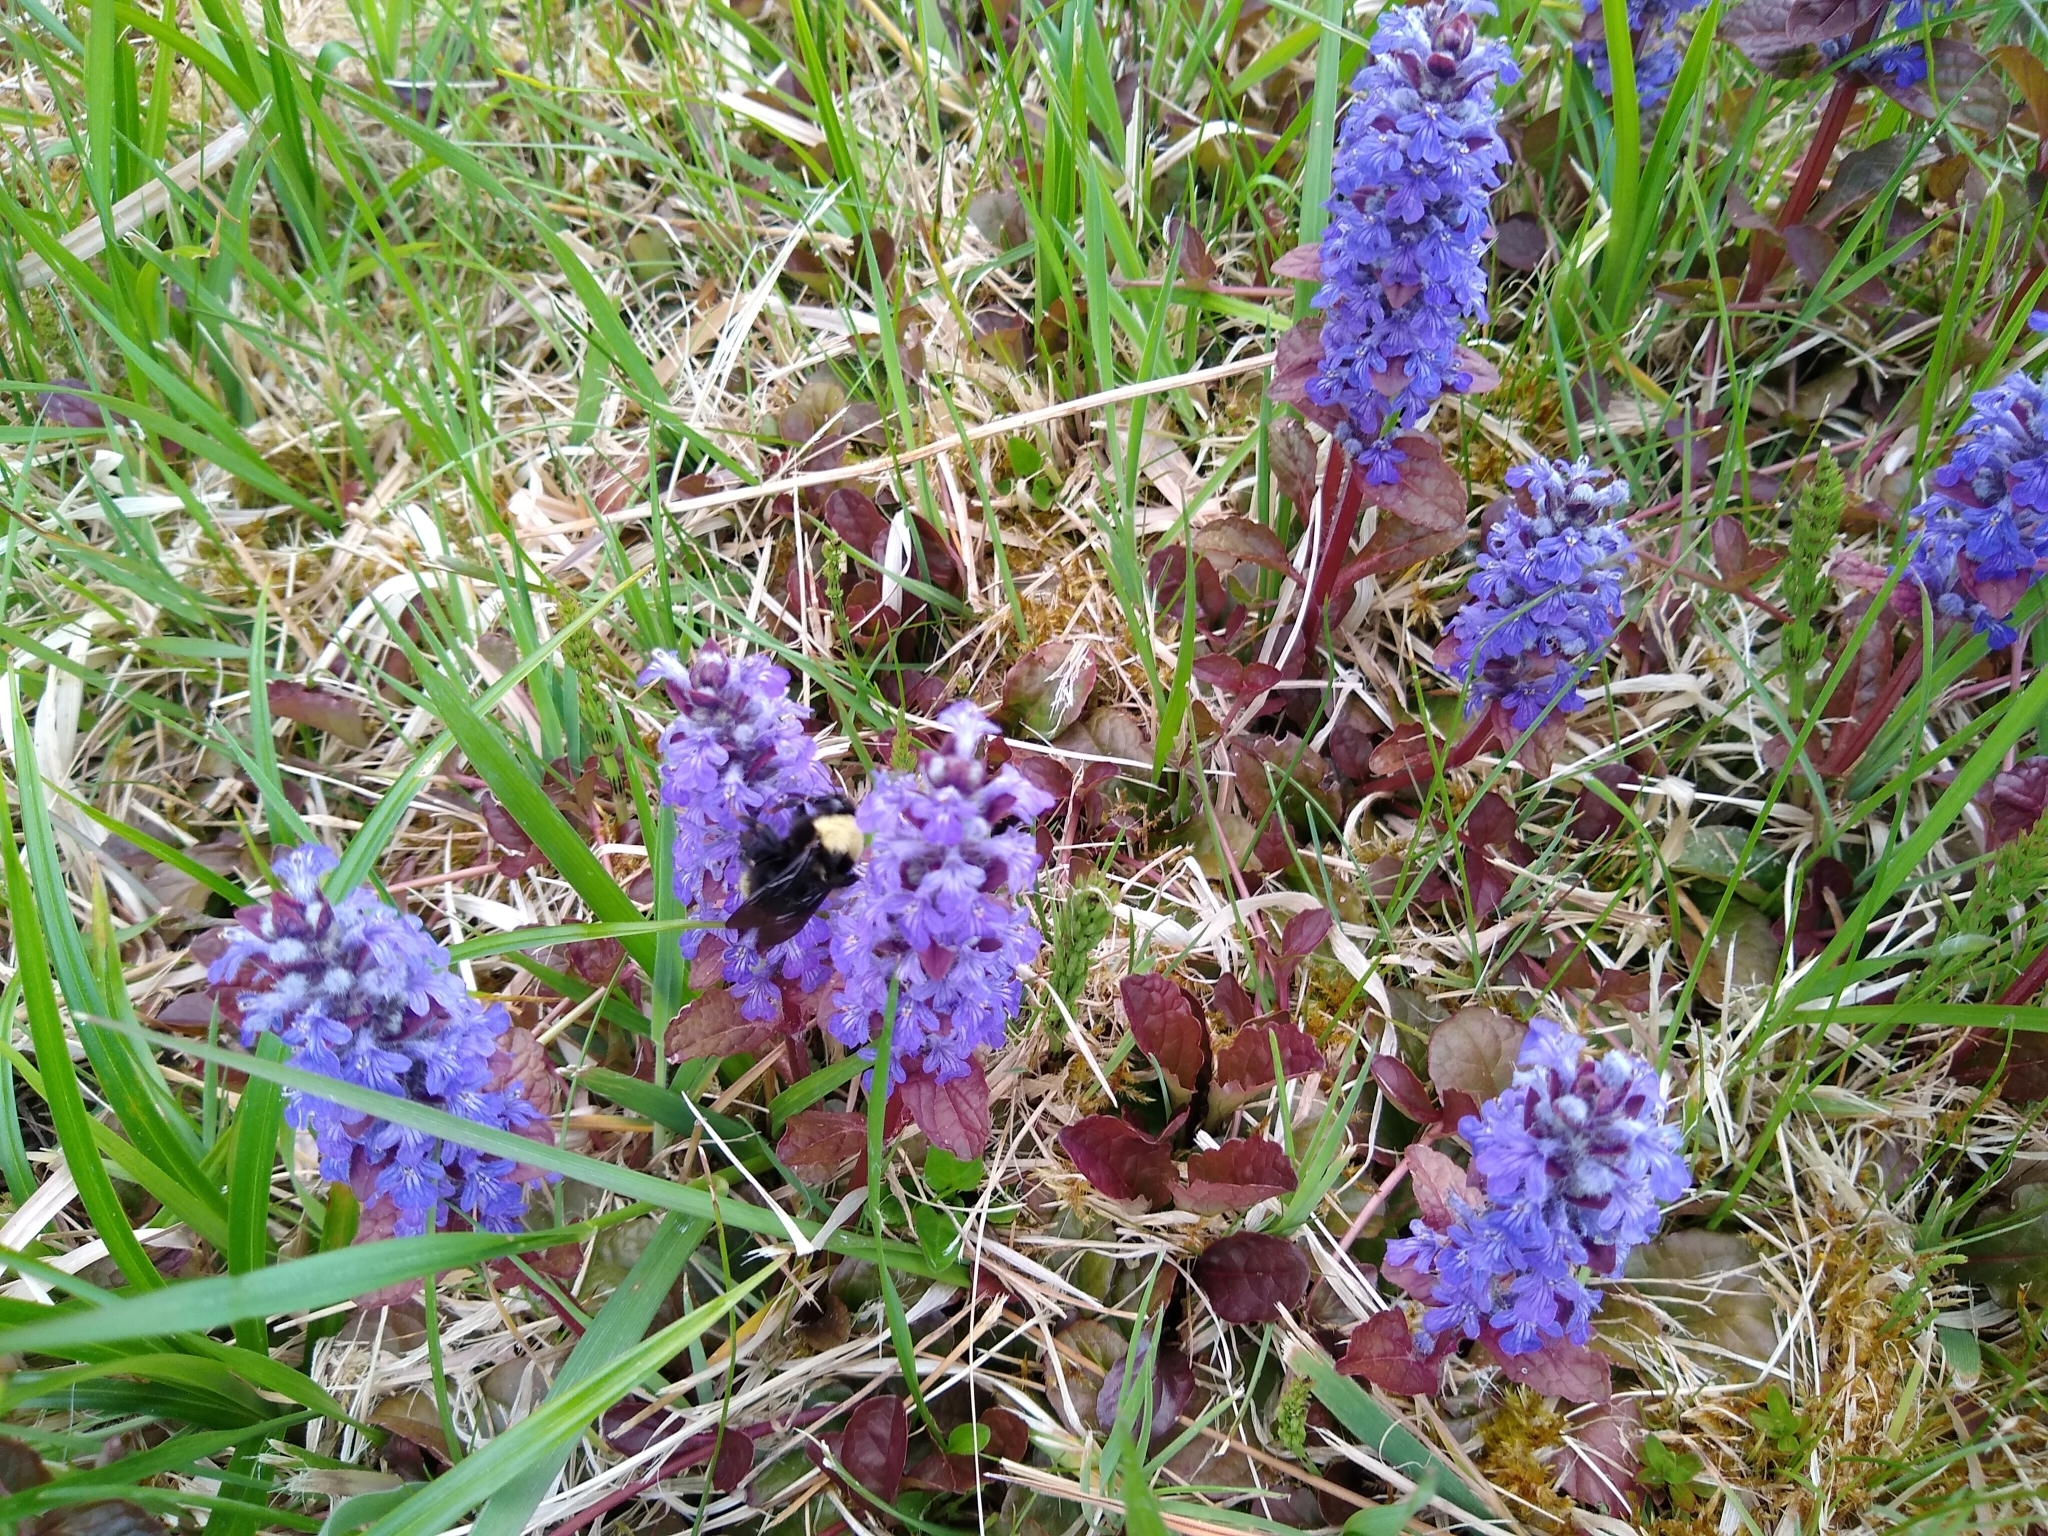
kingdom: Plantae
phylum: Tracheophyta
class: Magnoliopsida
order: Lamiales
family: Lamiaceae
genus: Ajuga
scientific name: Ajuga reptans
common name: Bugle
